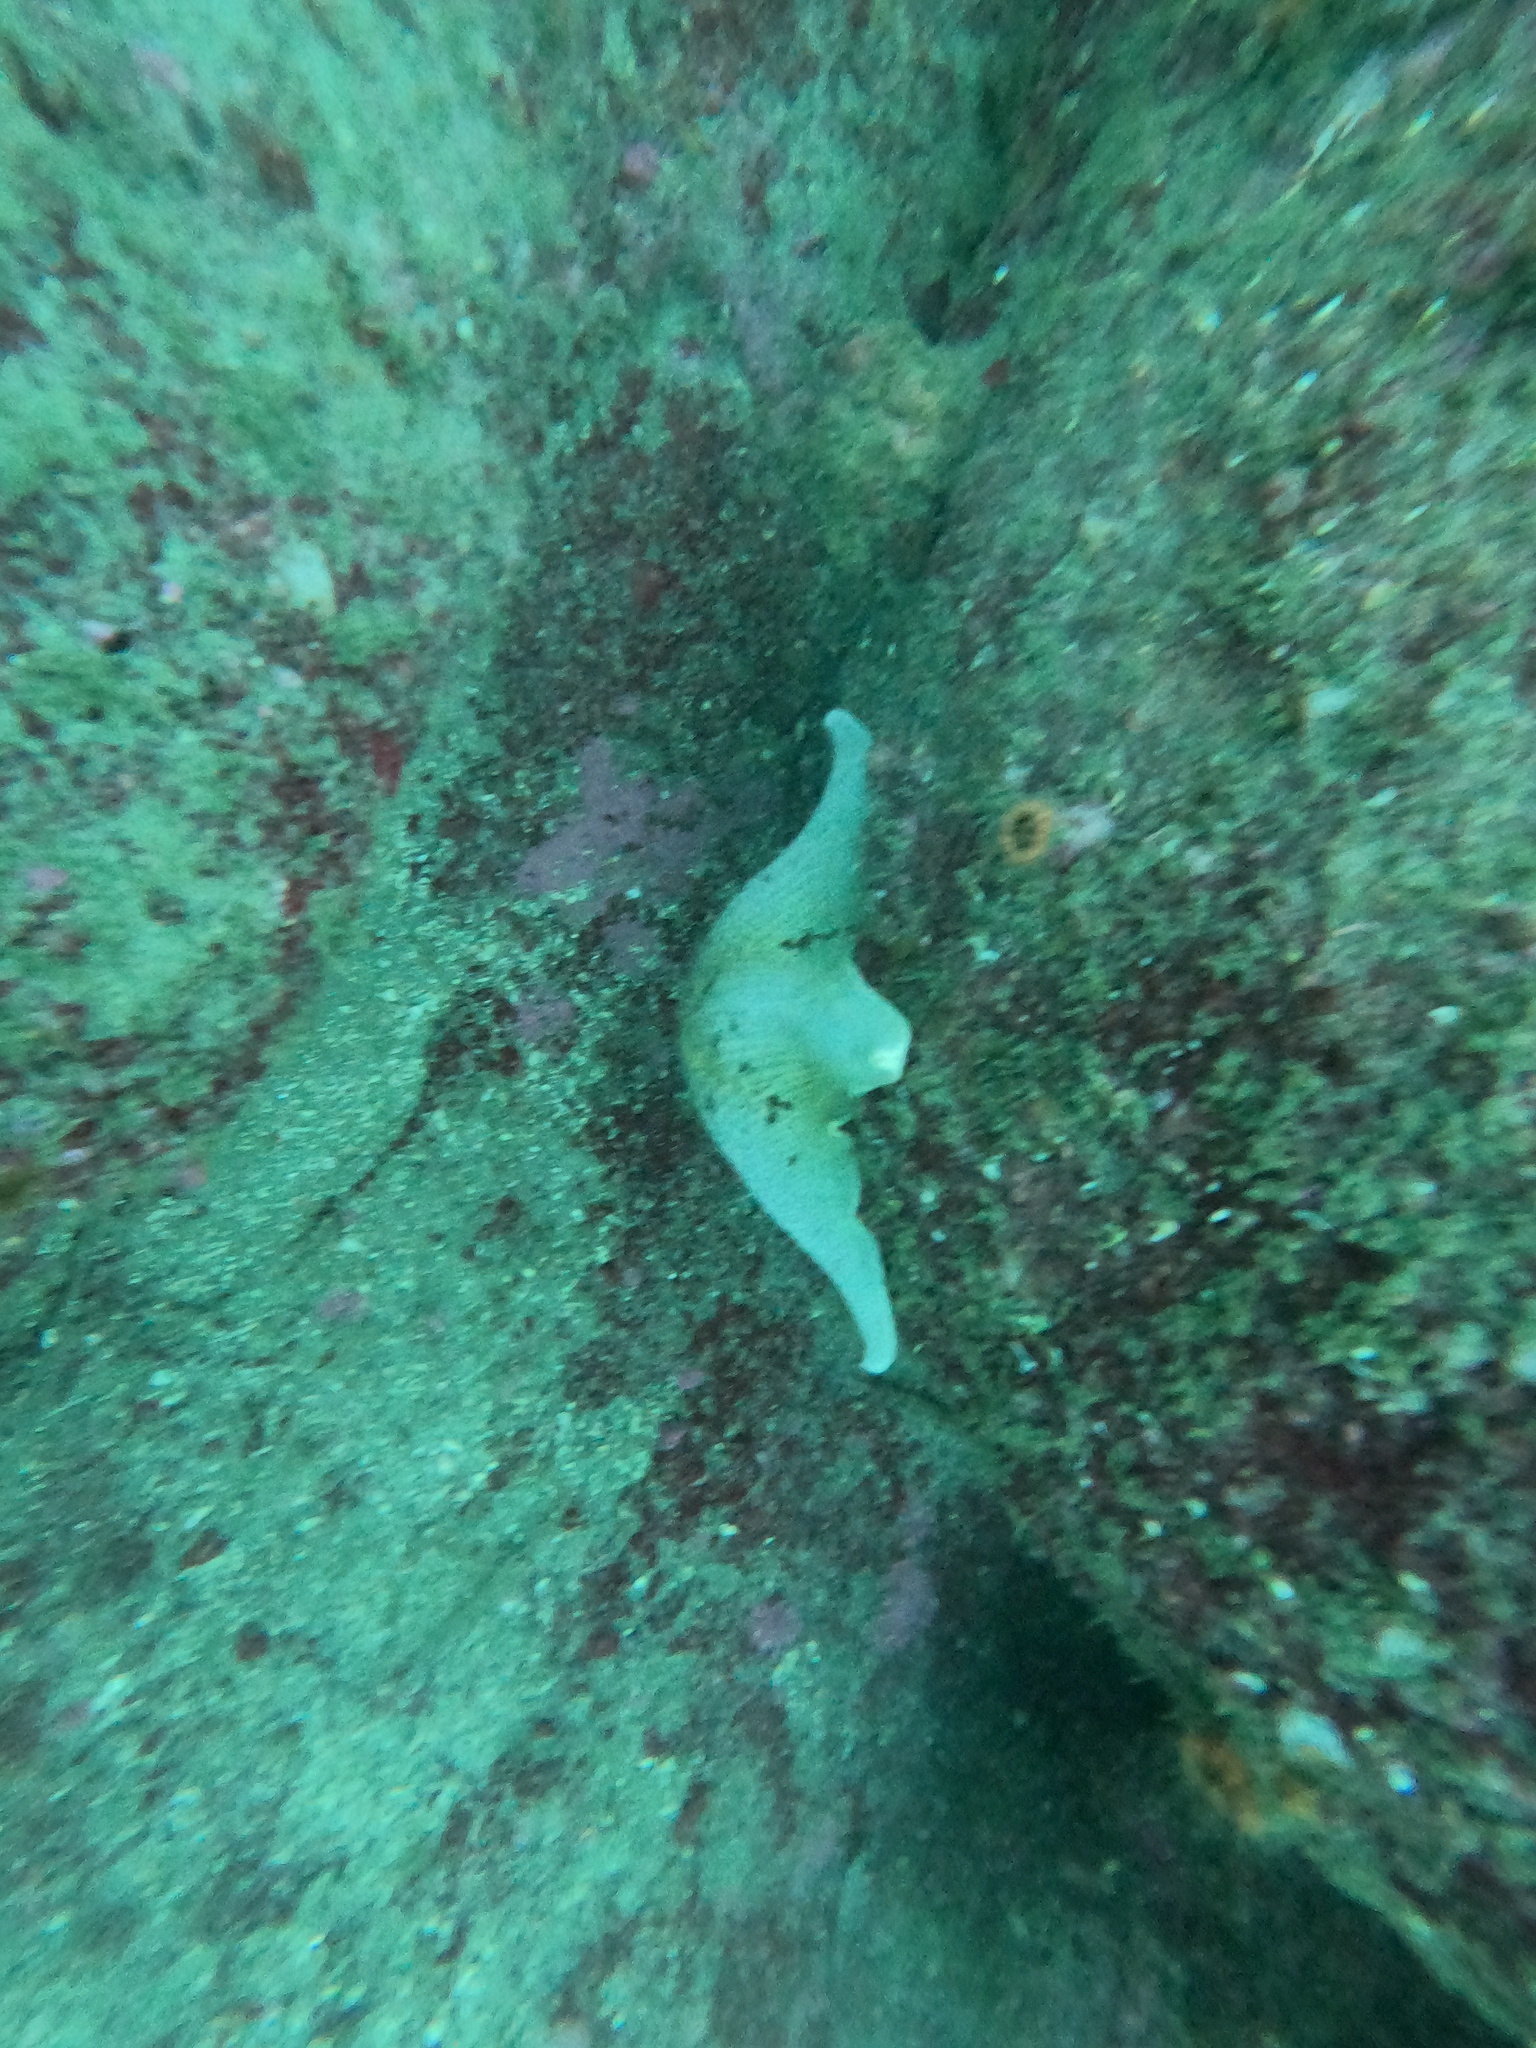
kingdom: Animalia
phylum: Echinodermata
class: Asteroidea
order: Valvatida
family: Asterinidae
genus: Patiria
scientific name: Patiria miniata
